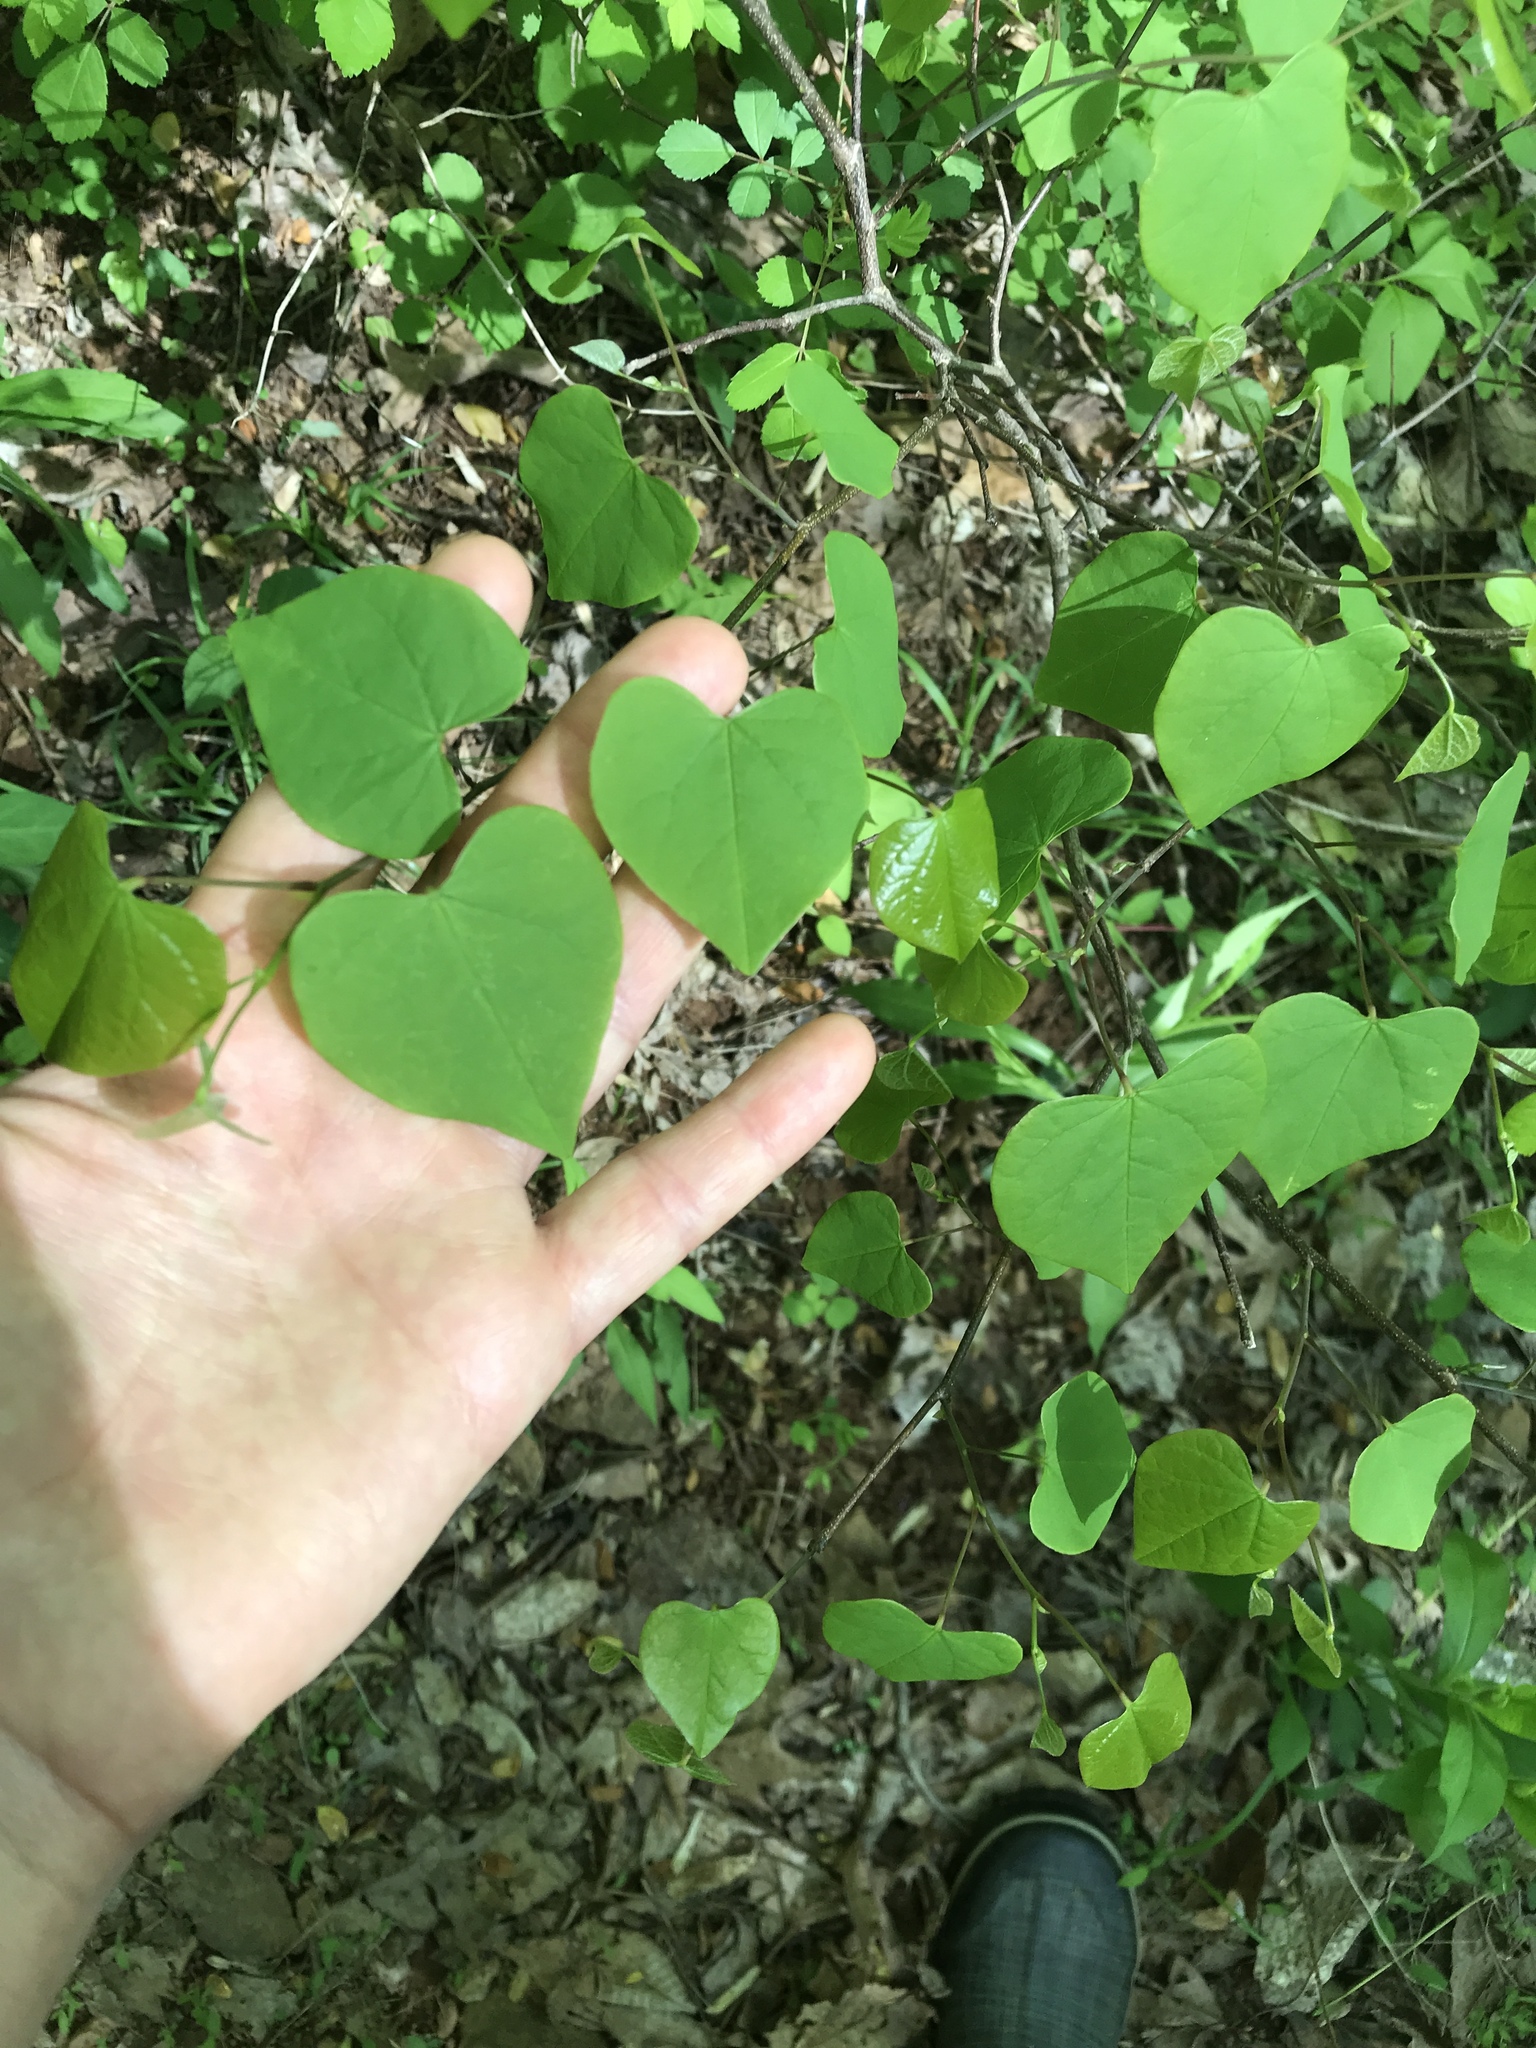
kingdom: Plantae
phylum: Tracheophyta
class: Magnoliopsida
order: Fabales
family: Fabaceae
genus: Cercis
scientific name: Cercis canadensis
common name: Eastern redbud
